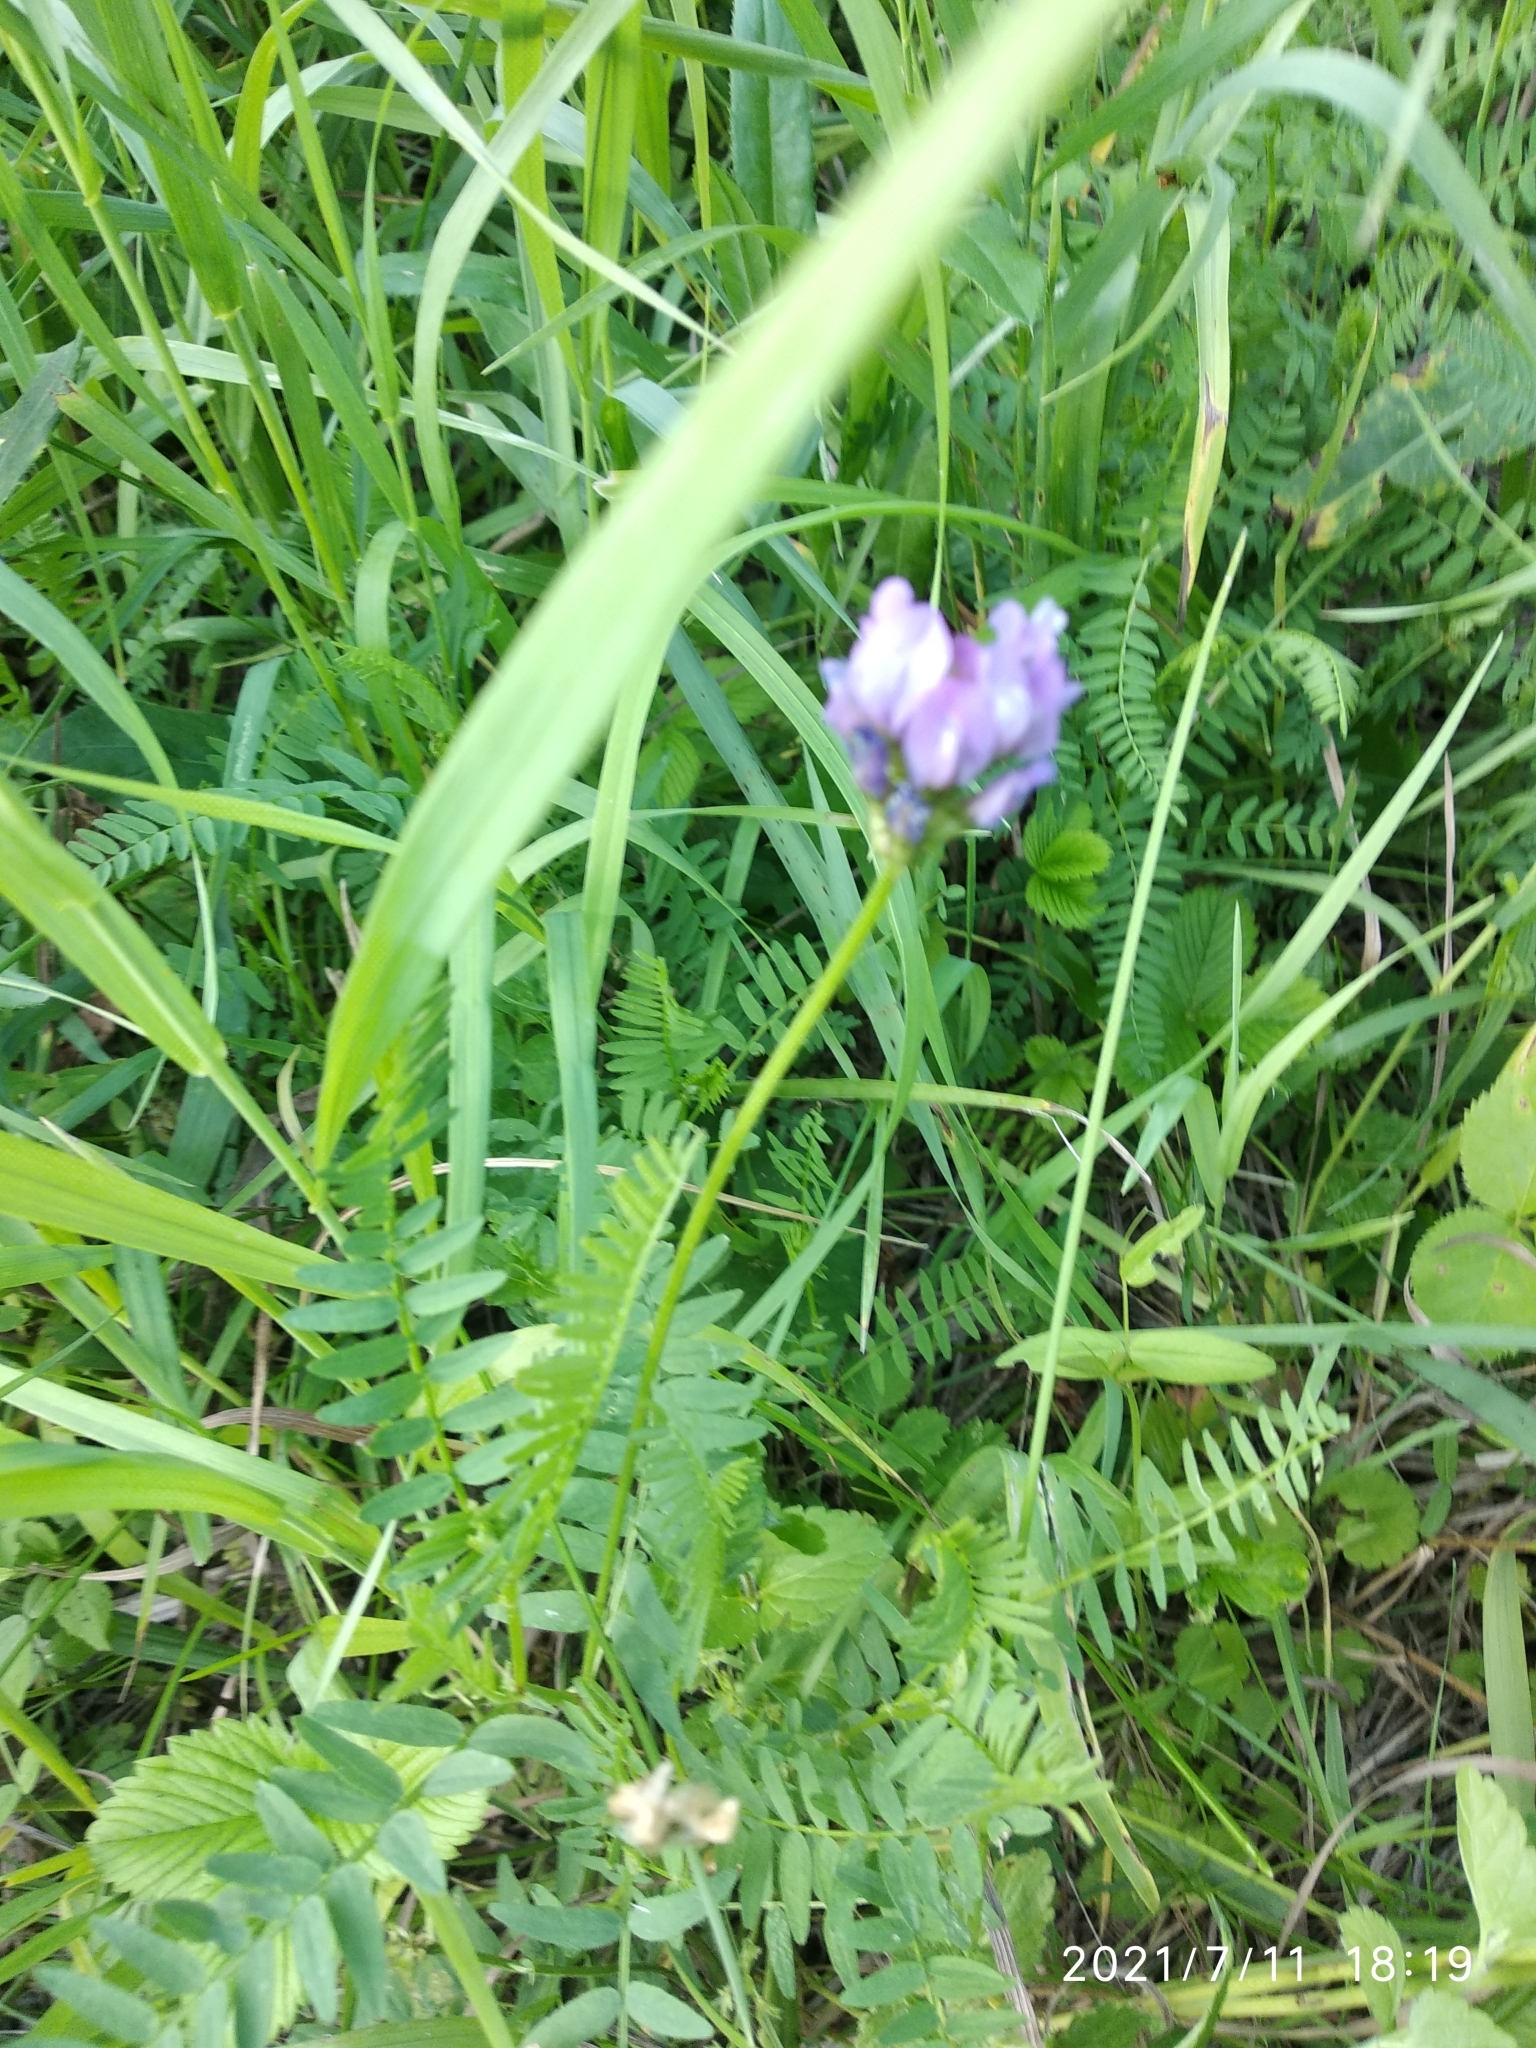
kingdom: Plantae
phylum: Tracheophyta
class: Magnoliopsida
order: Fabales
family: Fabaceae
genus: Astragalus
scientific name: Astragalus danicus
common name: Purple milk-vetch
